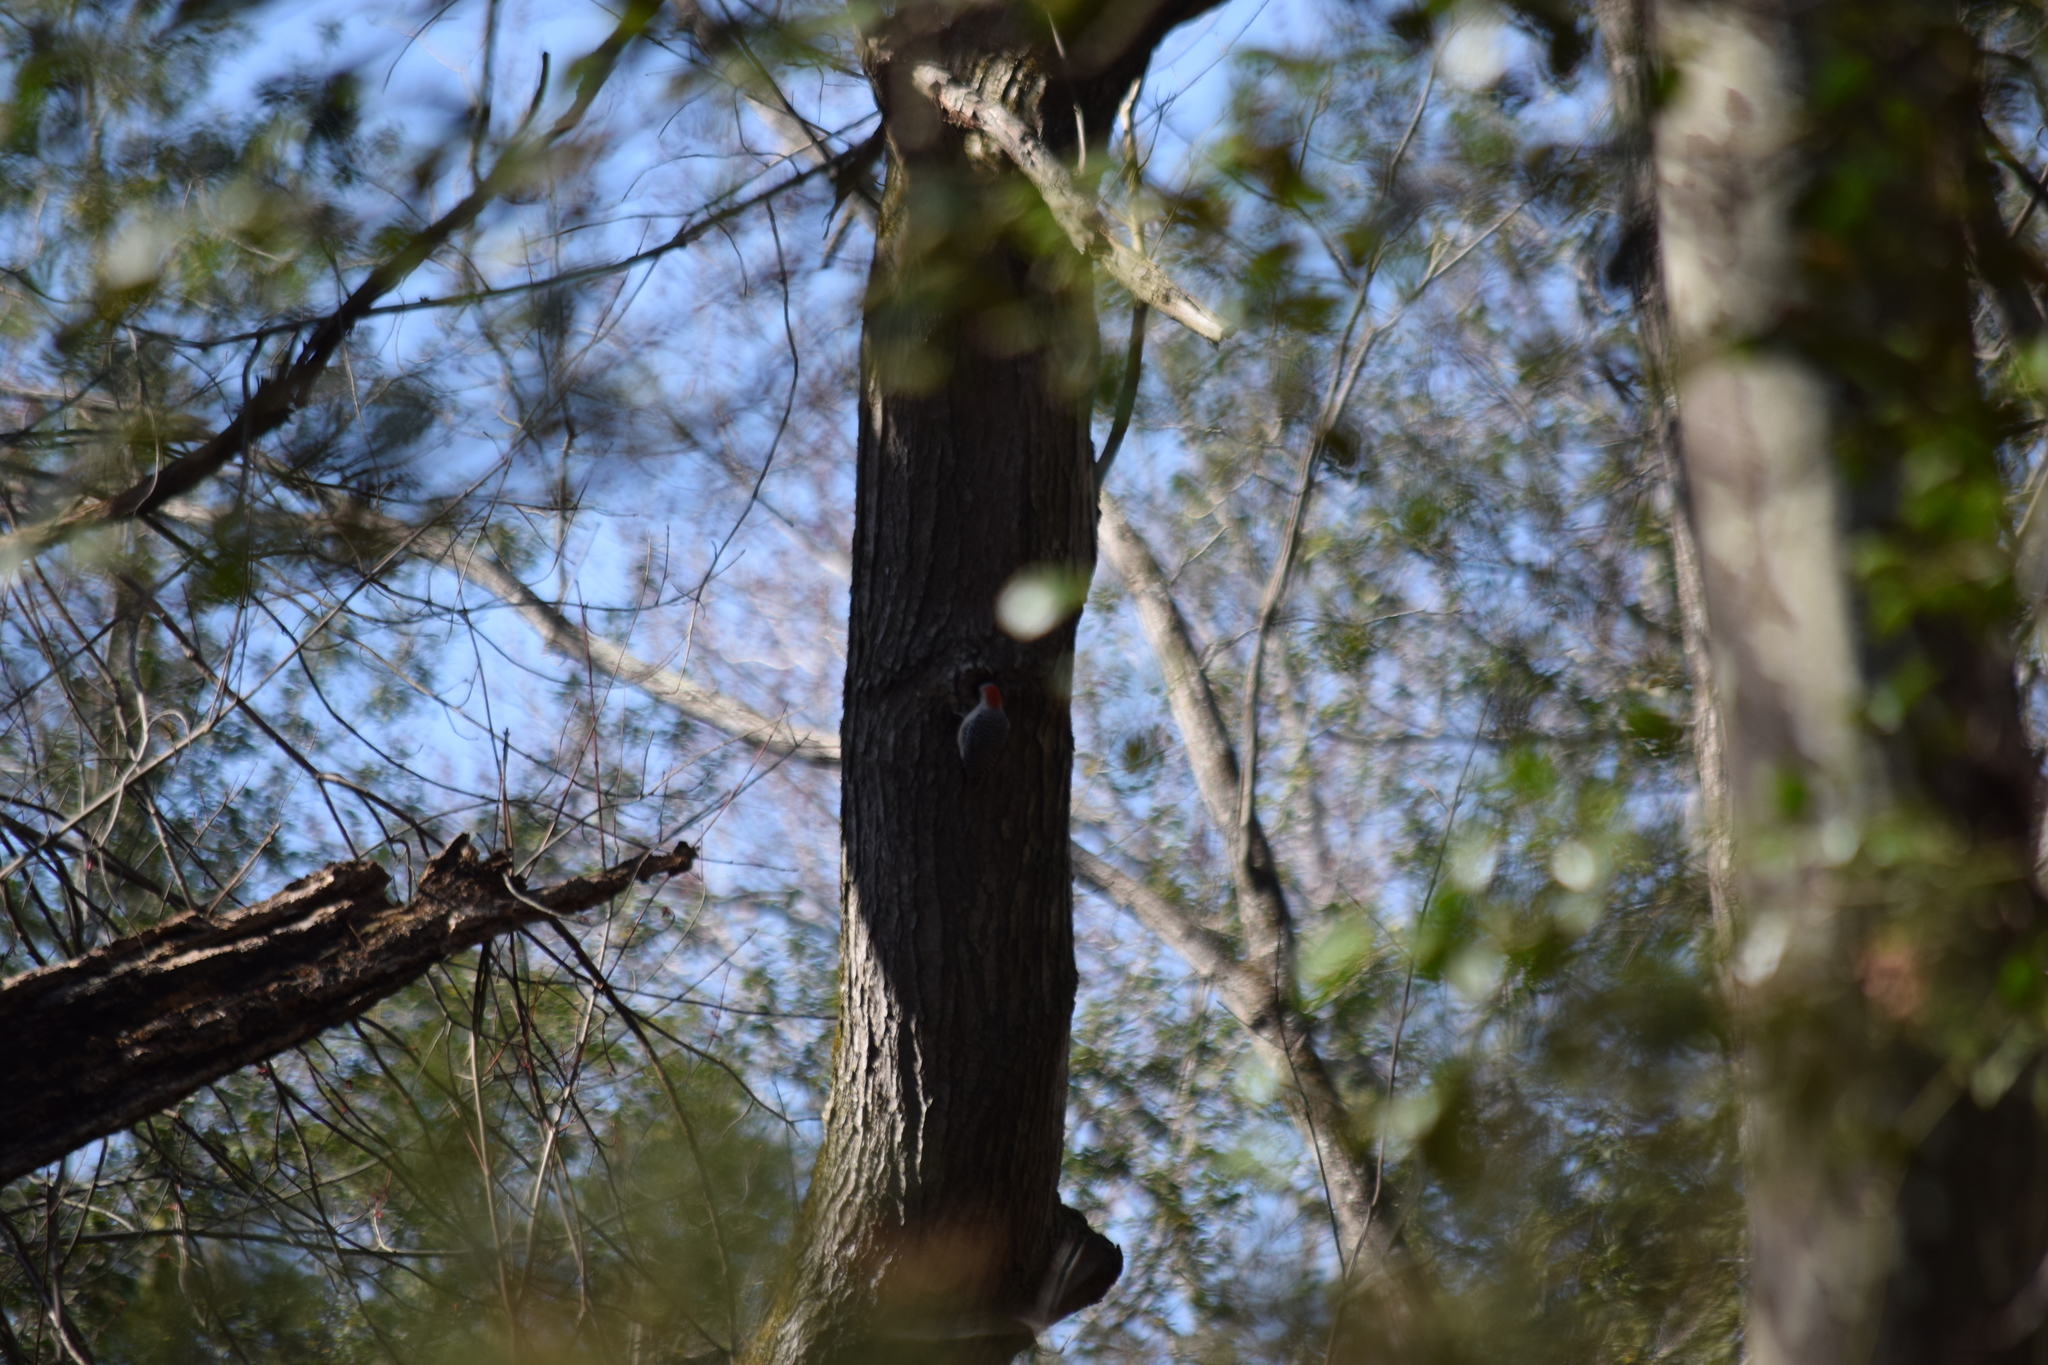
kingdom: Animalia
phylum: Chordata
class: Aves
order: Piciformes
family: Picidae
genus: Melanerpes
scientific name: Melanerpes carolinus
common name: Red-bellied woodpecker
